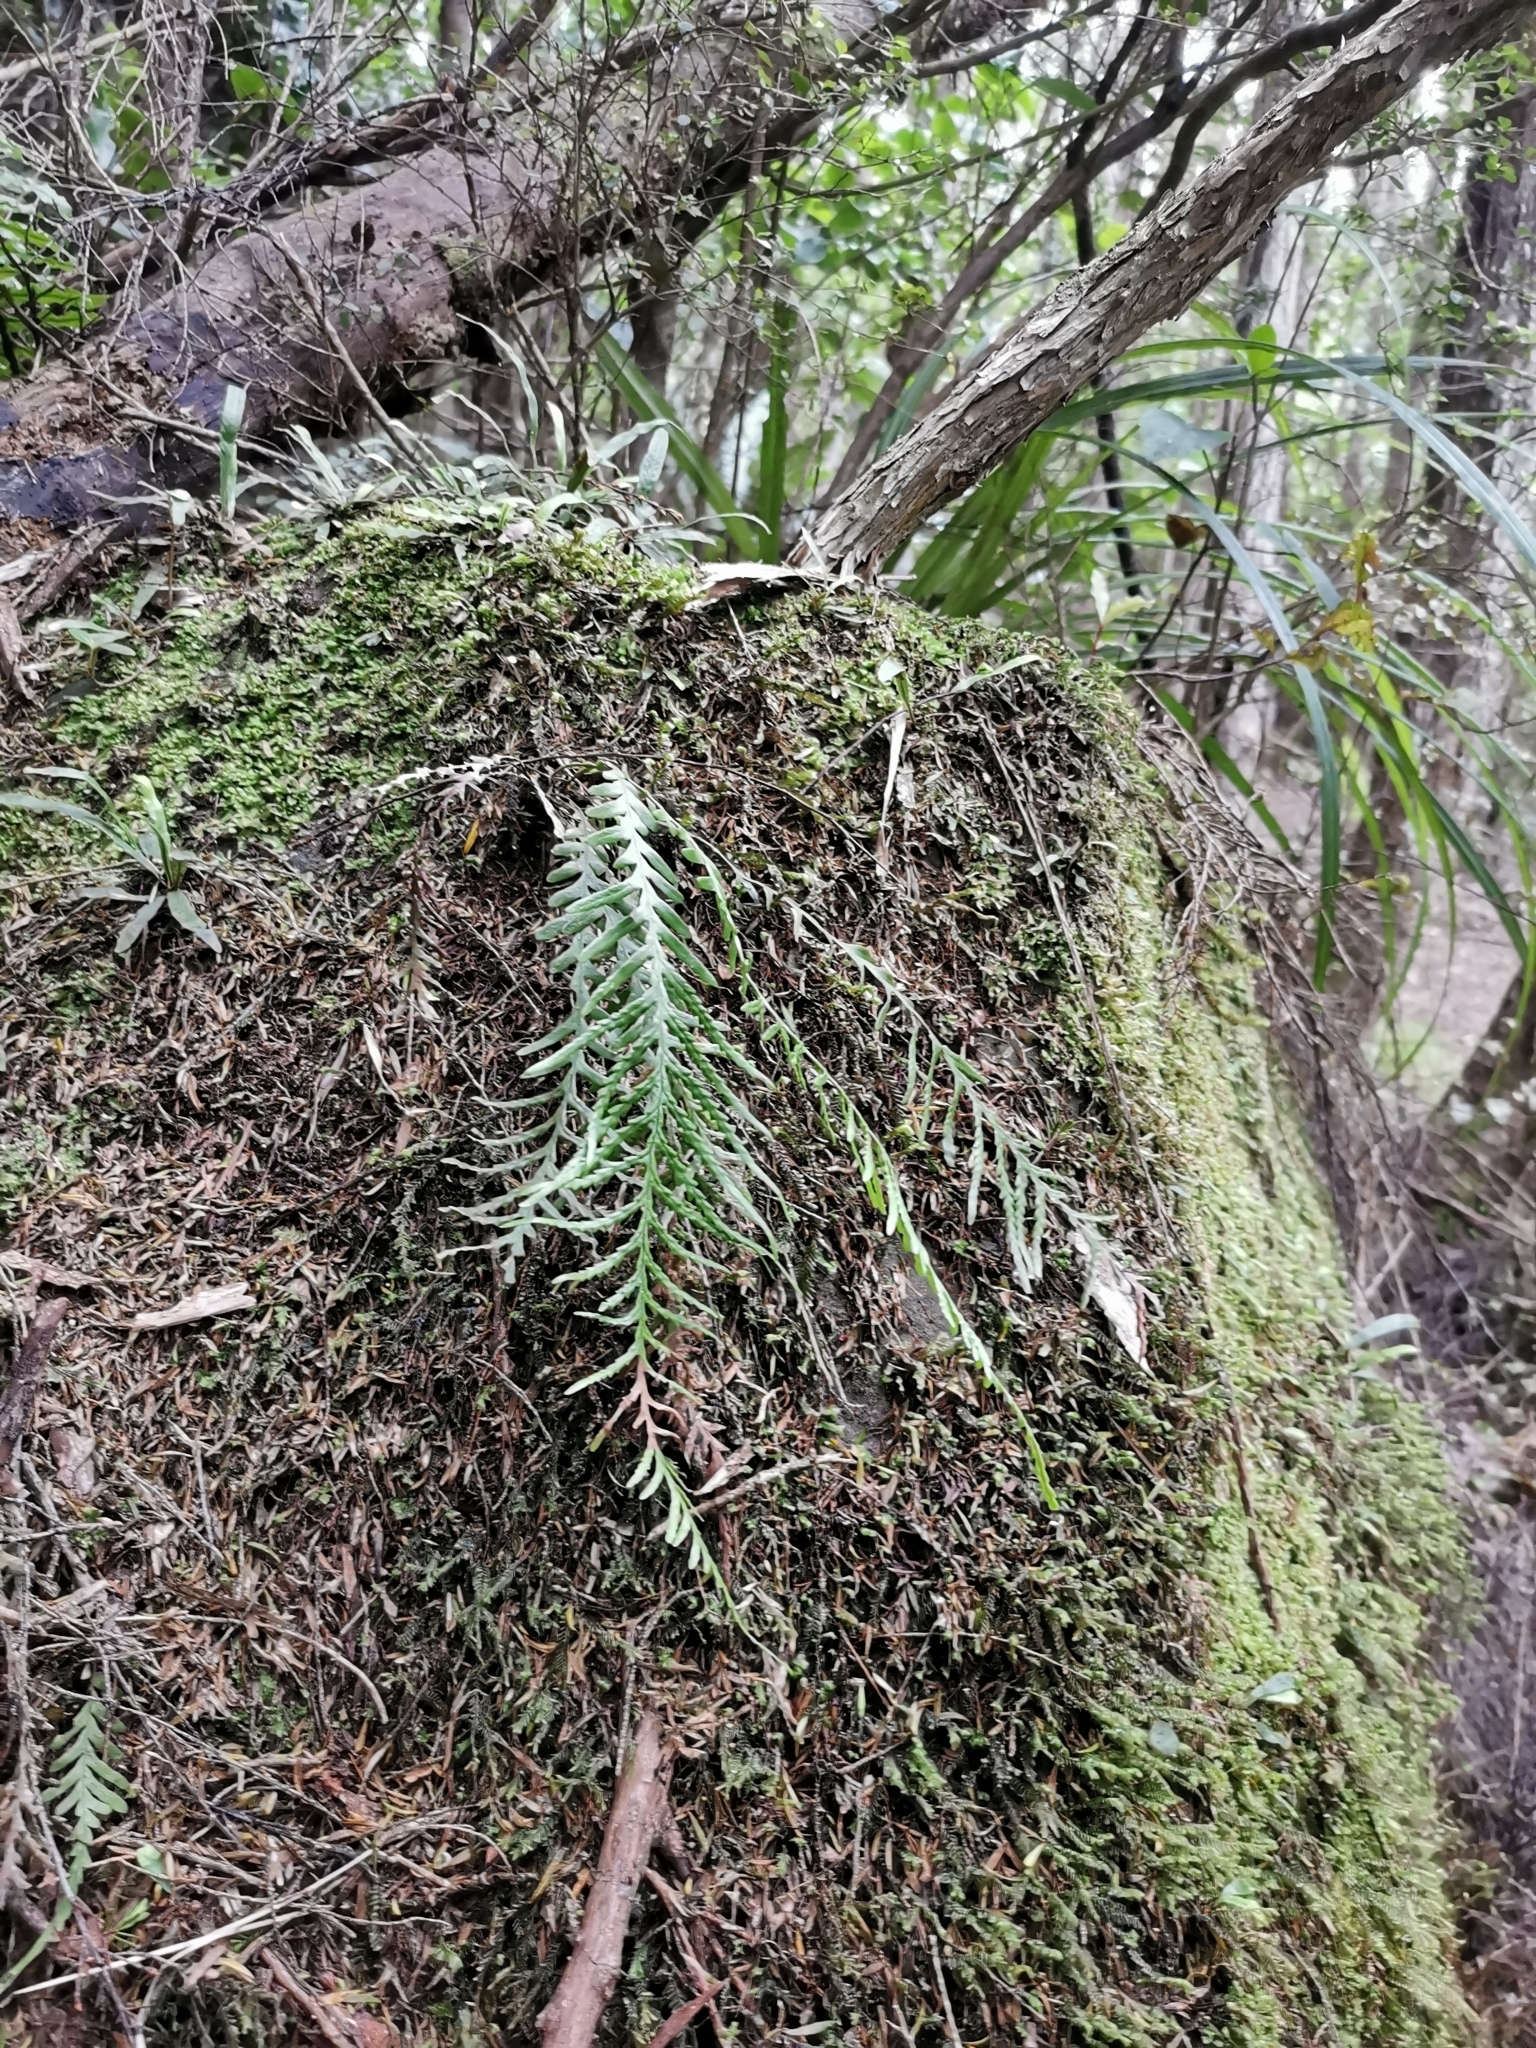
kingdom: Plantae
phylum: Tracheophyta
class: Polypodiopsida
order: Polypodiales
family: Polypodiaceae
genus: Notogrammitis
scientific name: Notogrammitis heterophylla
